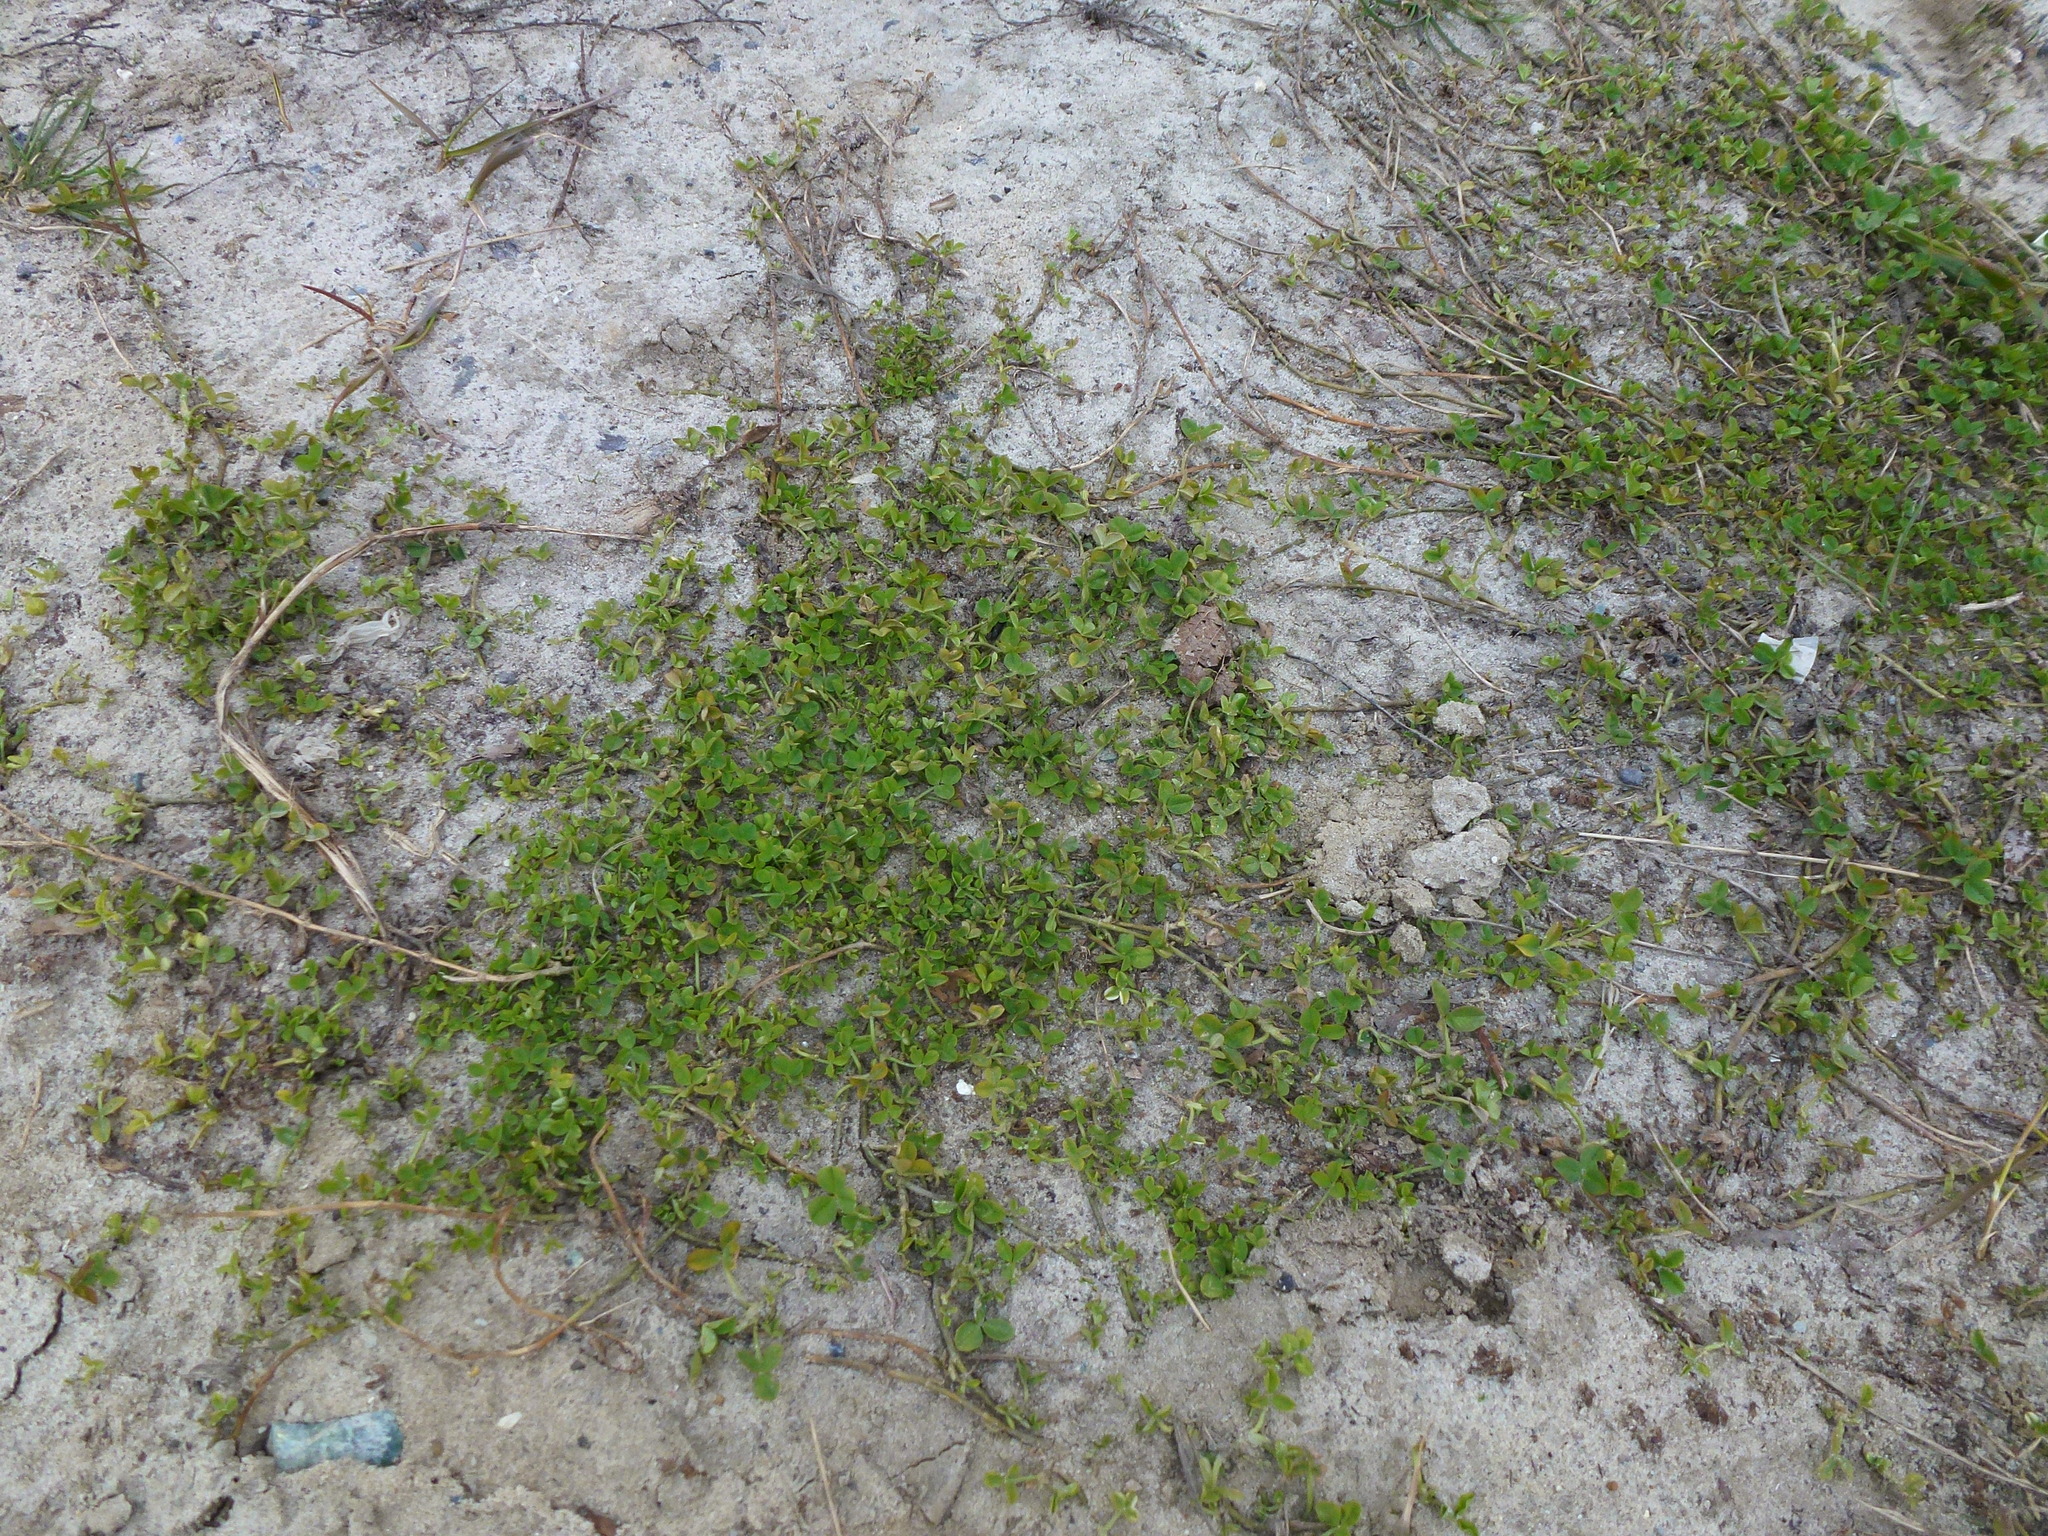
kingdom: Plantae
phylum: Tracheophyta
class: Magnoliopsida
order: Fabales
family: Fabaceae
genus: Trifolium
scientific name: Trifolium repens
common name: White clover
